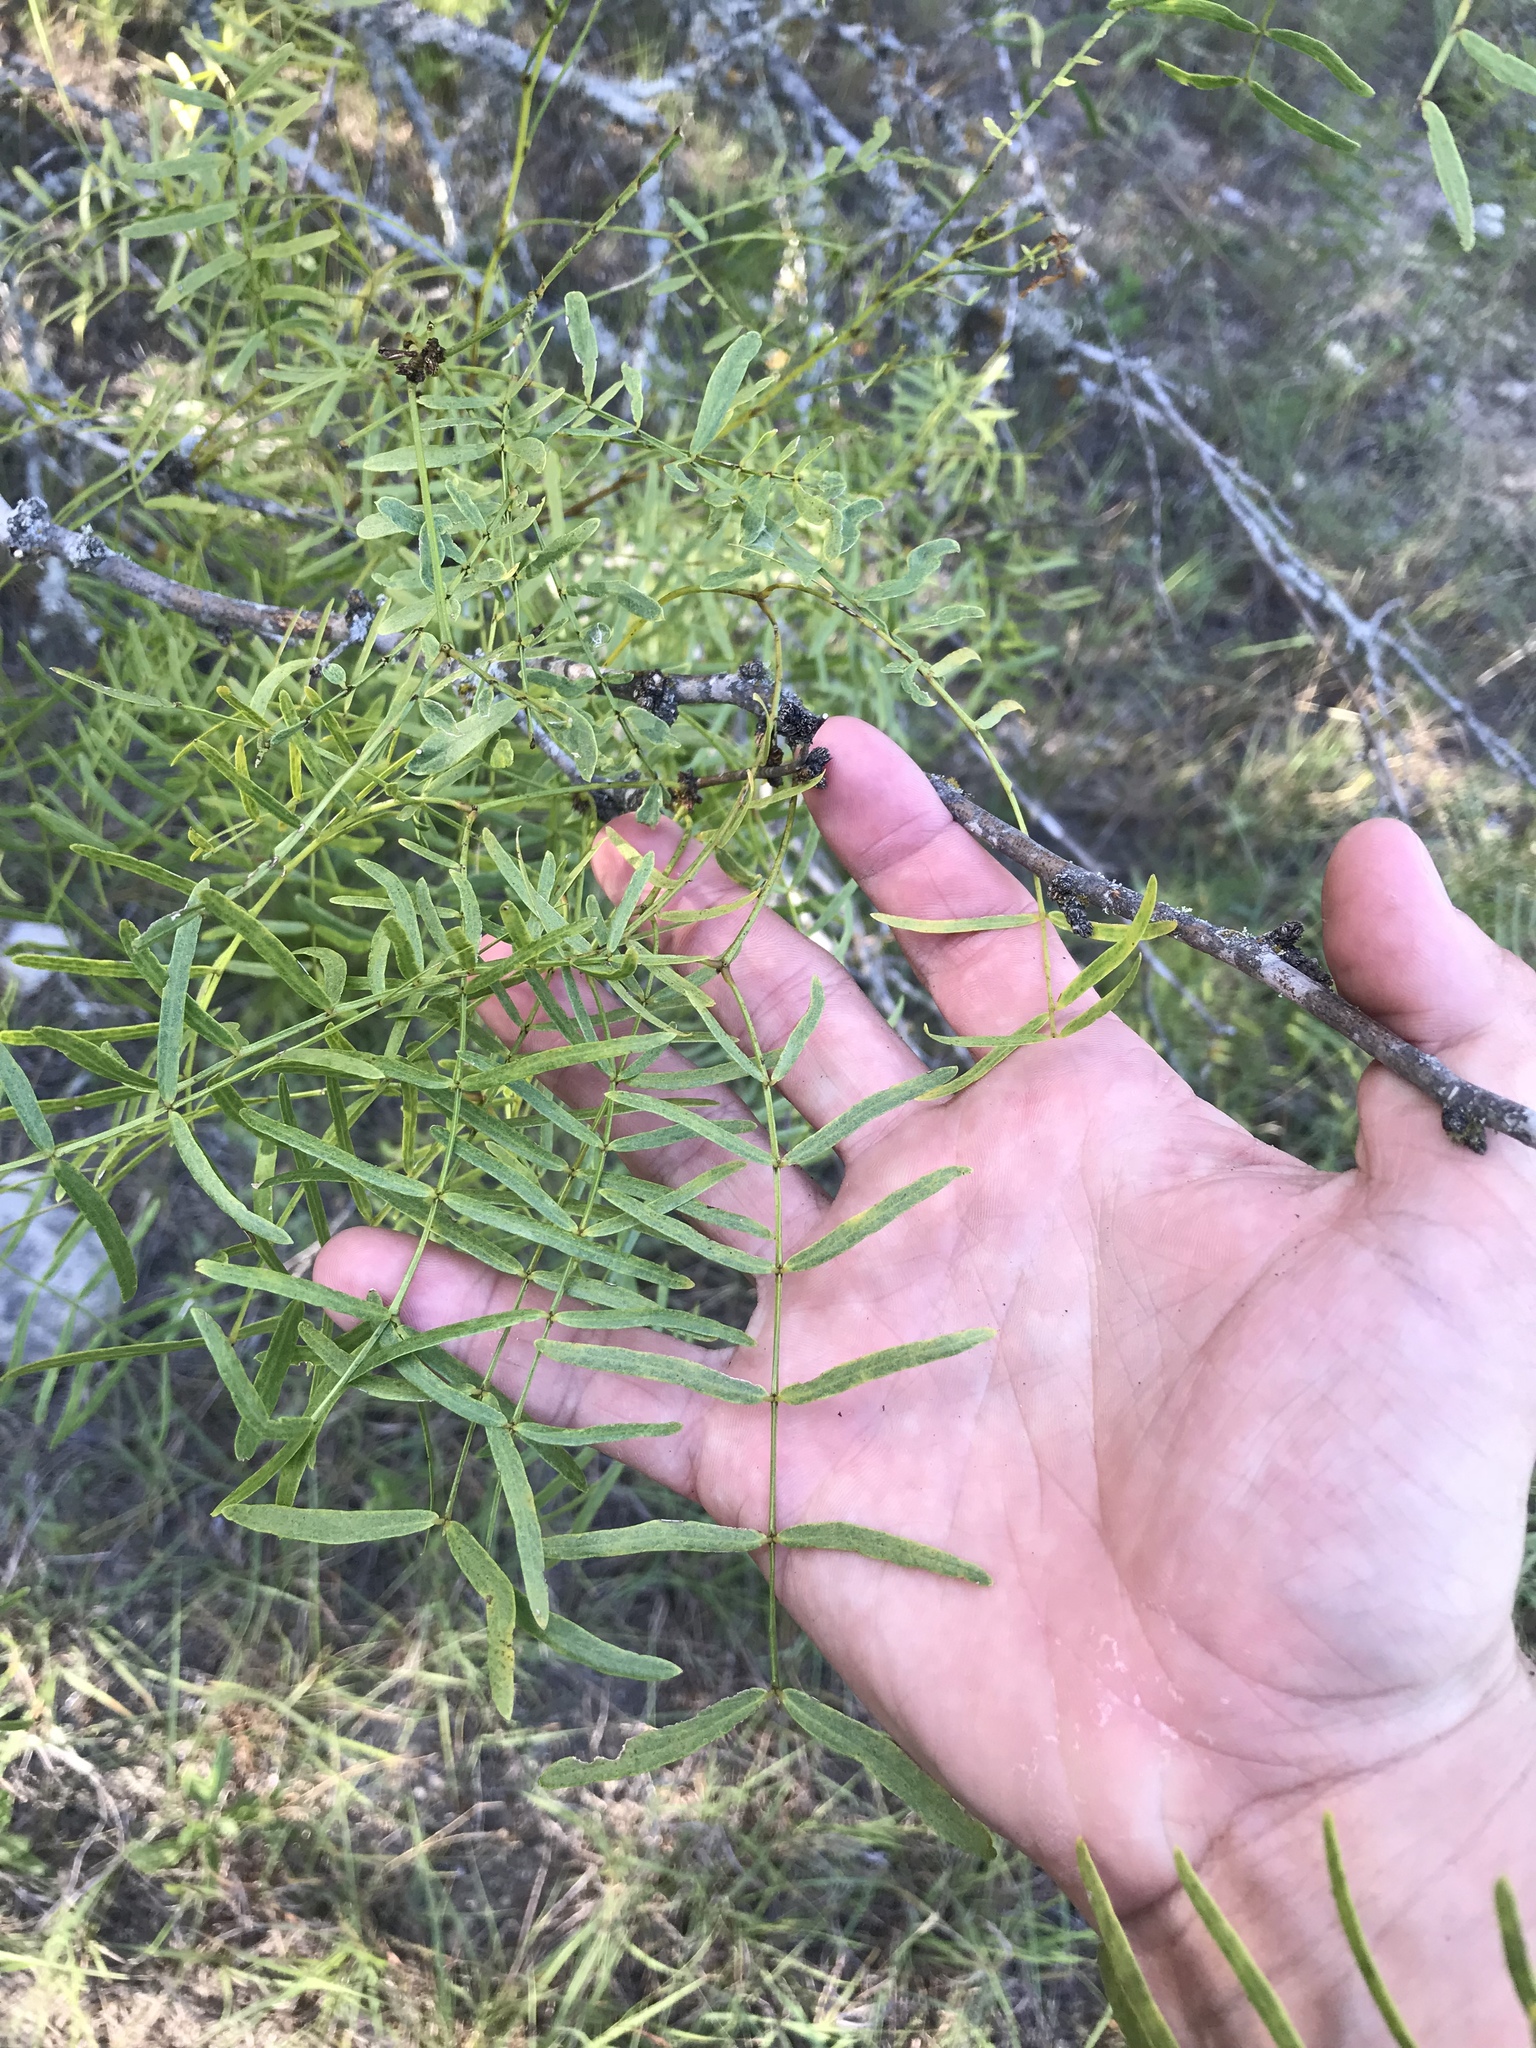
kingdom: Plantae
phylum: Tracheophyta
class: Magnoliopsida
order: Fabales
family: Fabaceae
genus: Prosopis
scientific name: Prosopis glandulosa
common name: Honey mesquite
